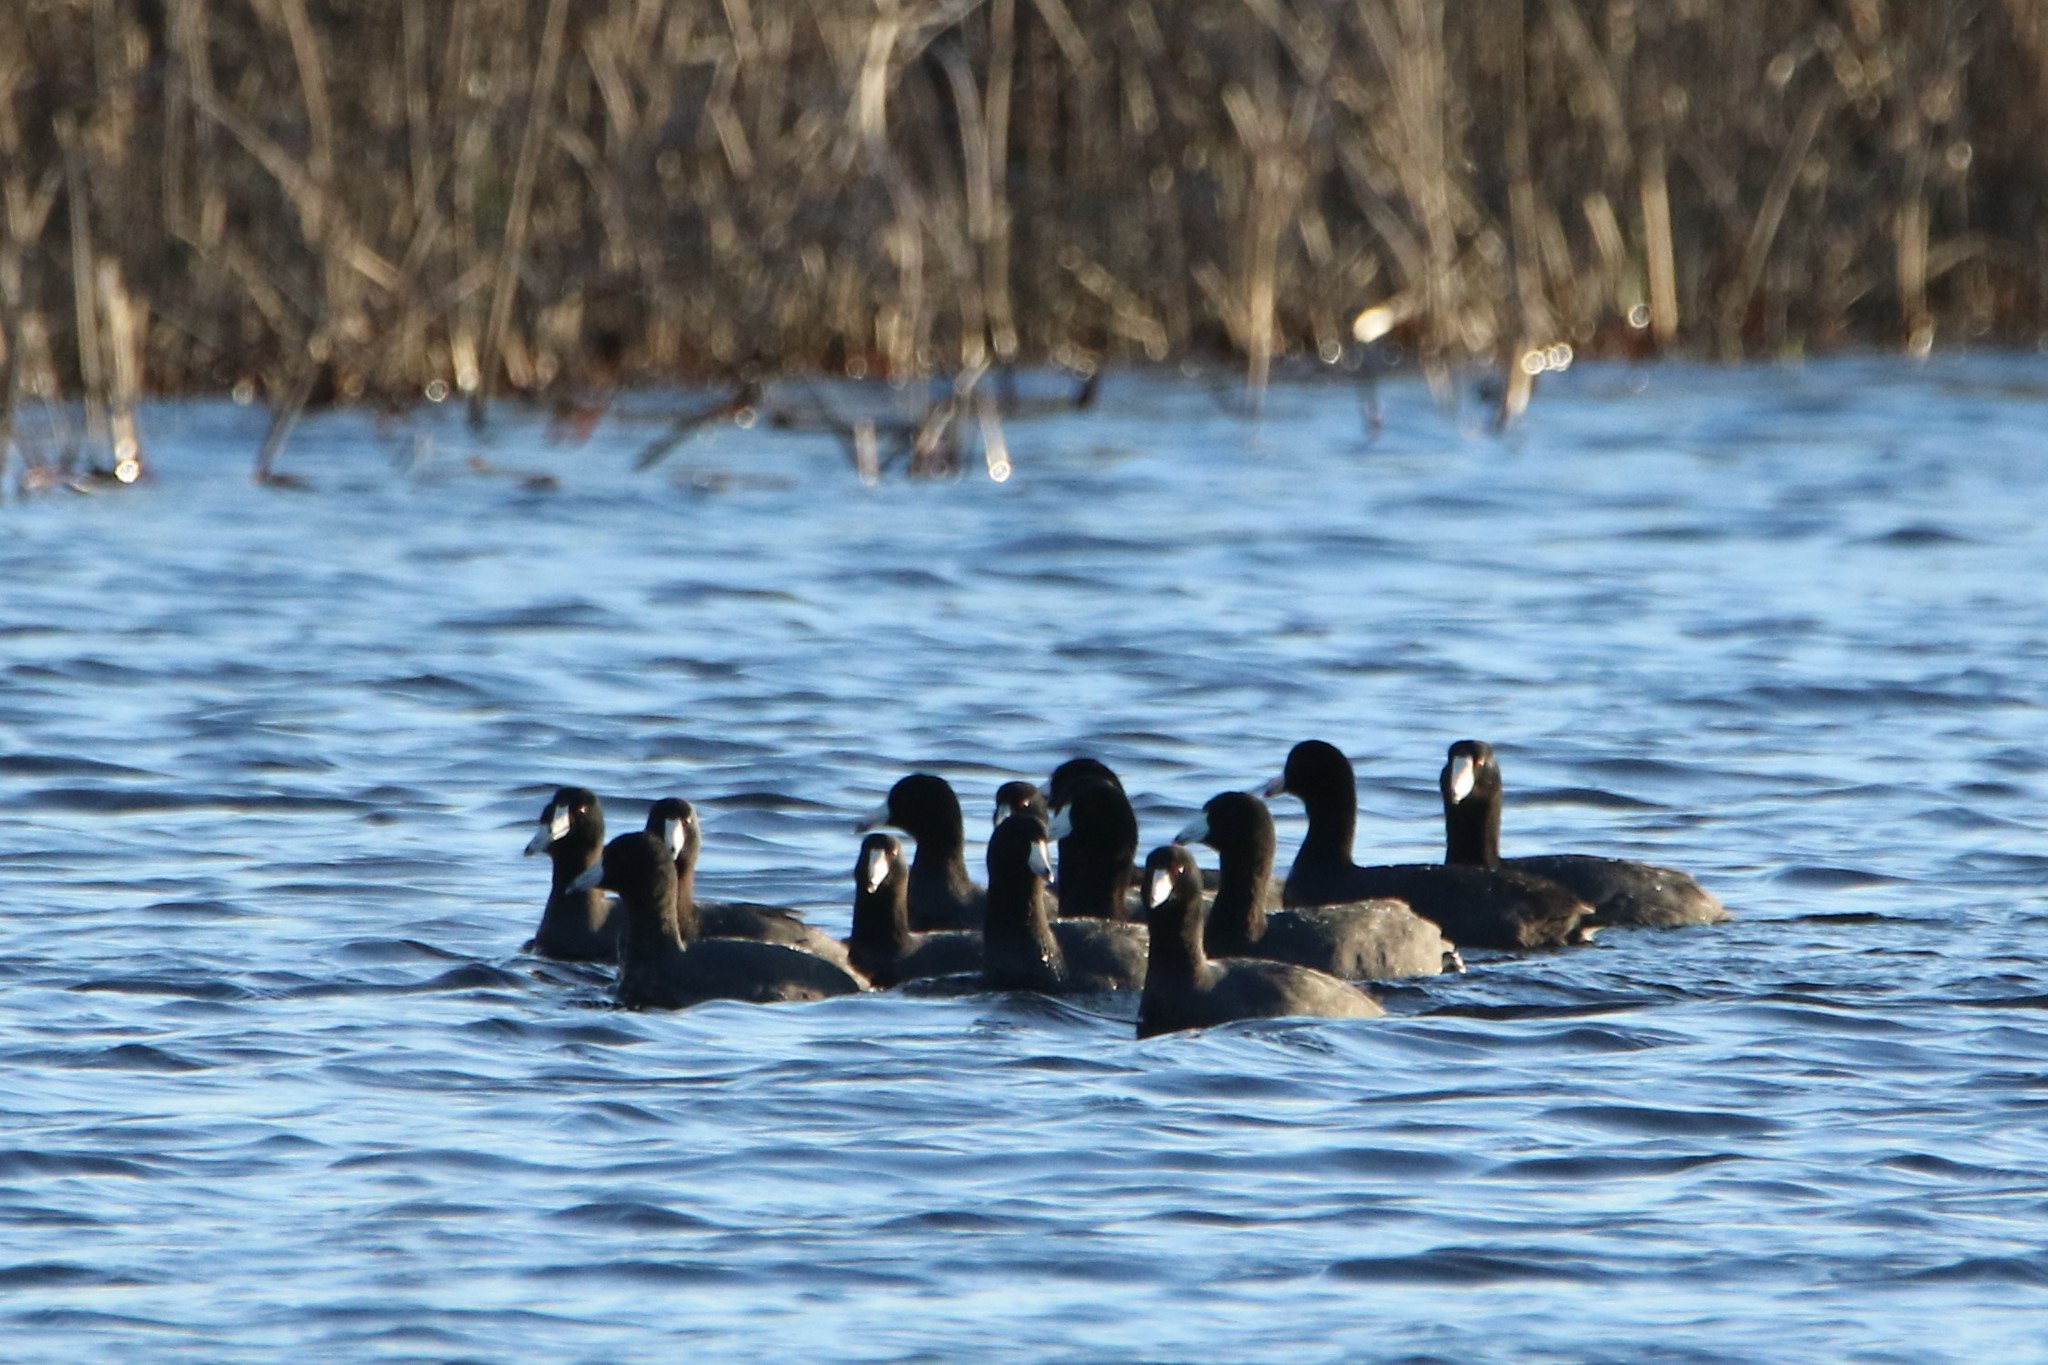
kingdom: Animalia
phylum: Chordata
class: Aves
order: Gruiformes
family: Rallidae
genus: Fulica
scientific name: Fulica americana
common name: American coot
